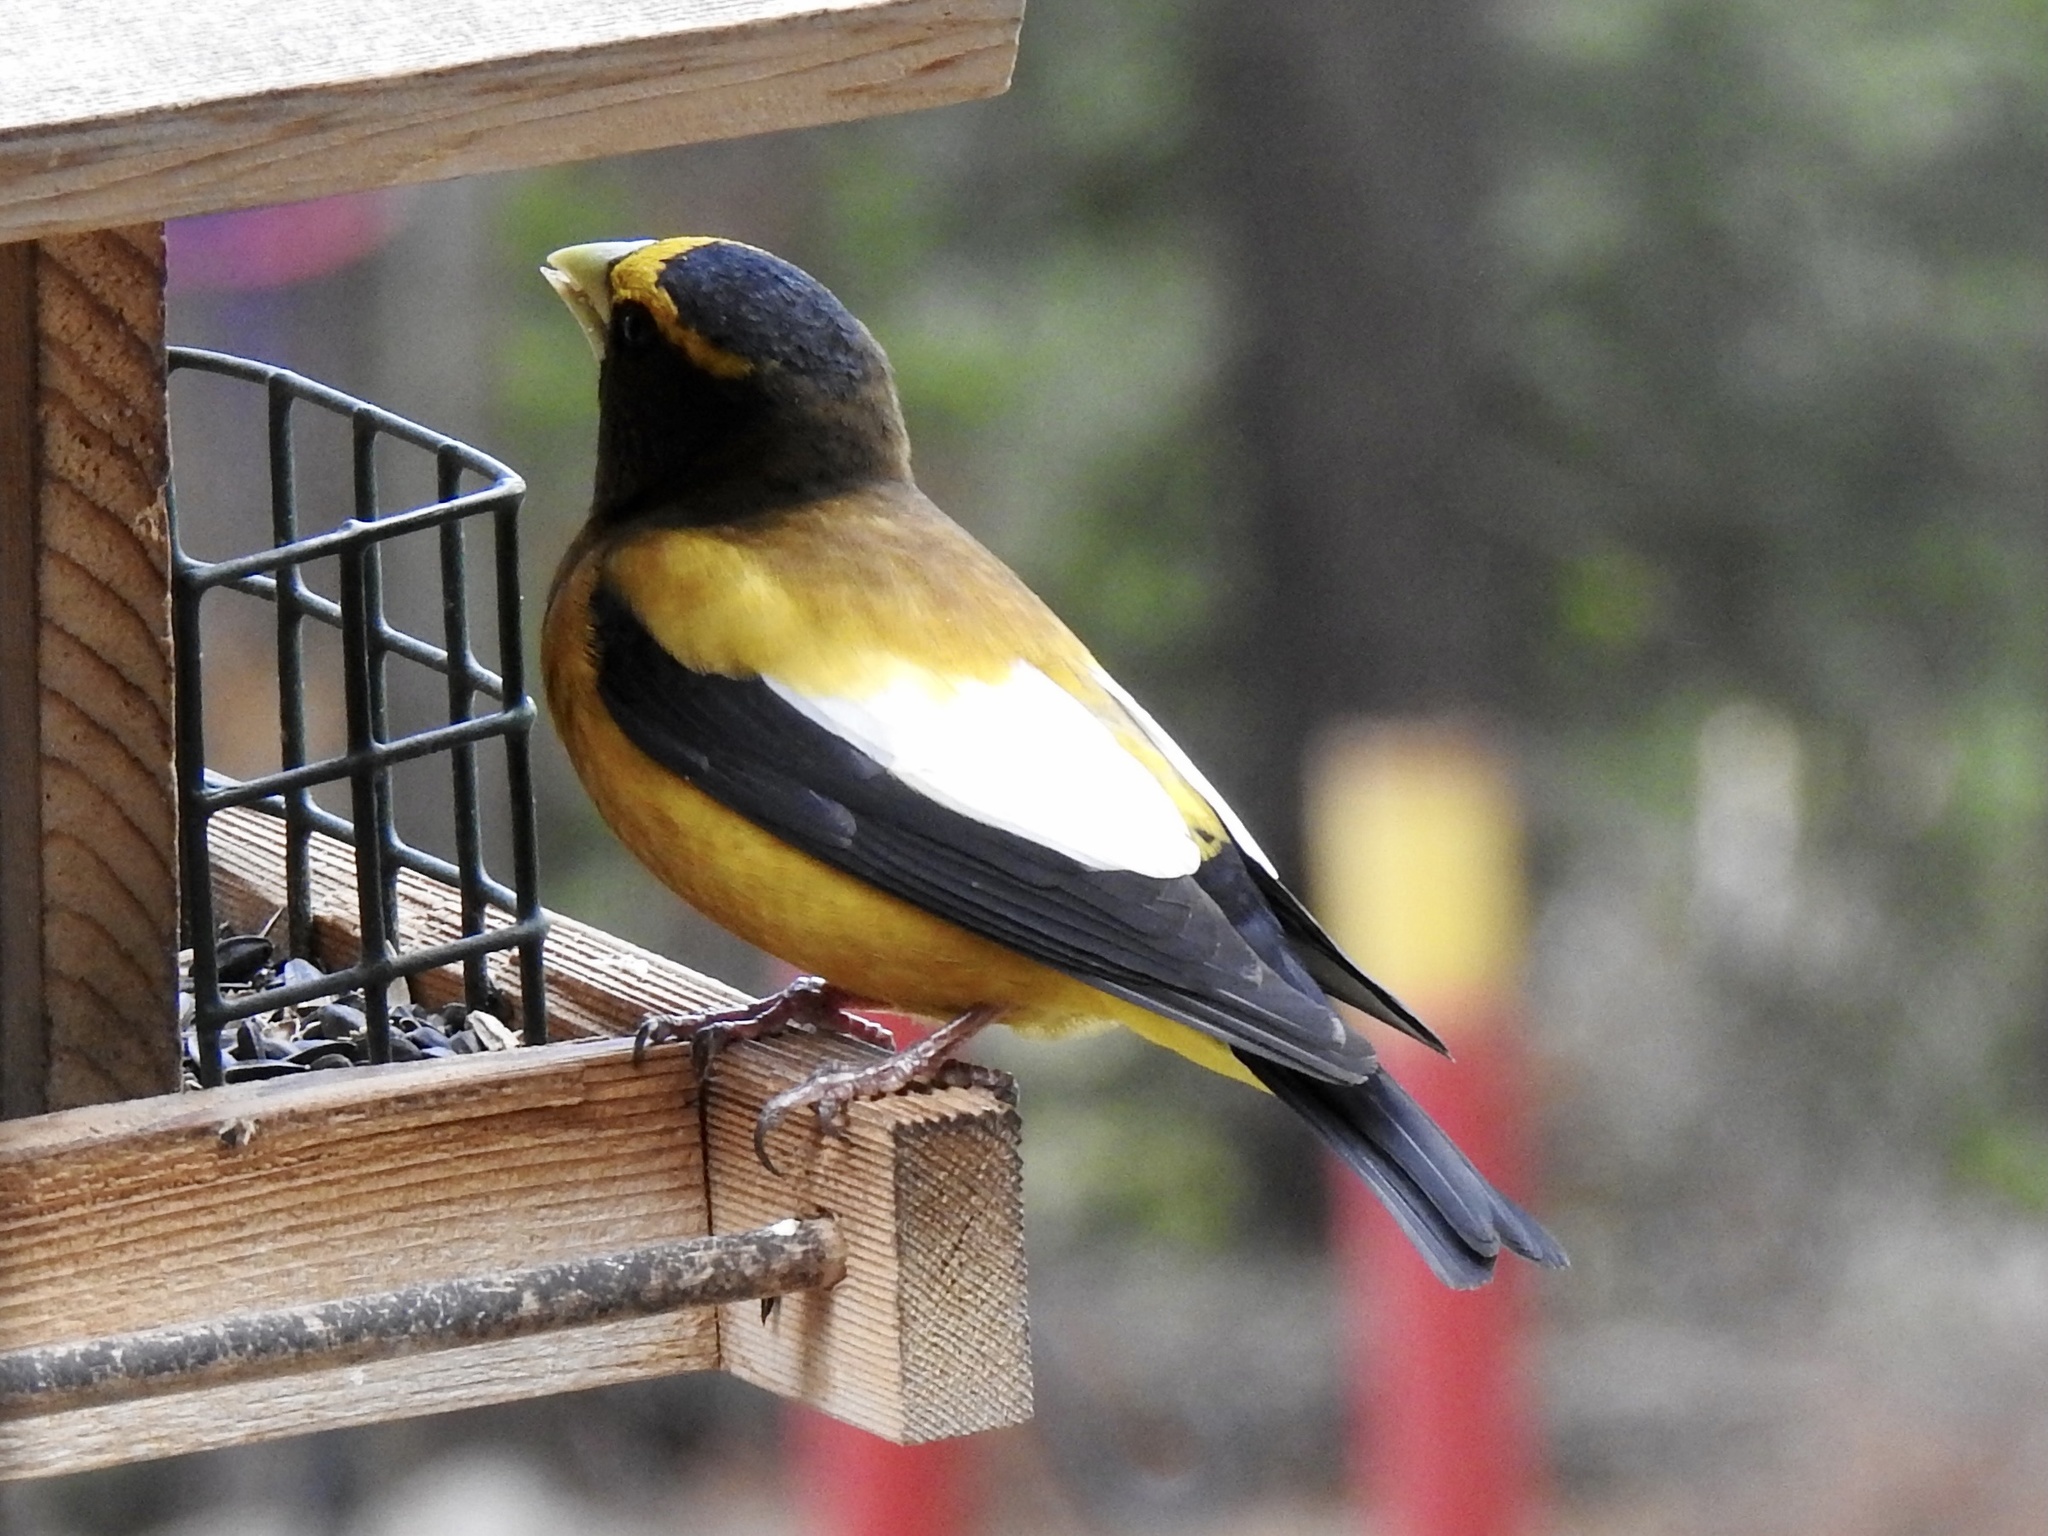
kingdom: Animalia
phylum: Chordata
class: Aves
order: Passeriformes
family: Fringillidae
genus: Hesperiphona
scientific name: Hesperiphona vespertina
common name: Evening grosbeak
